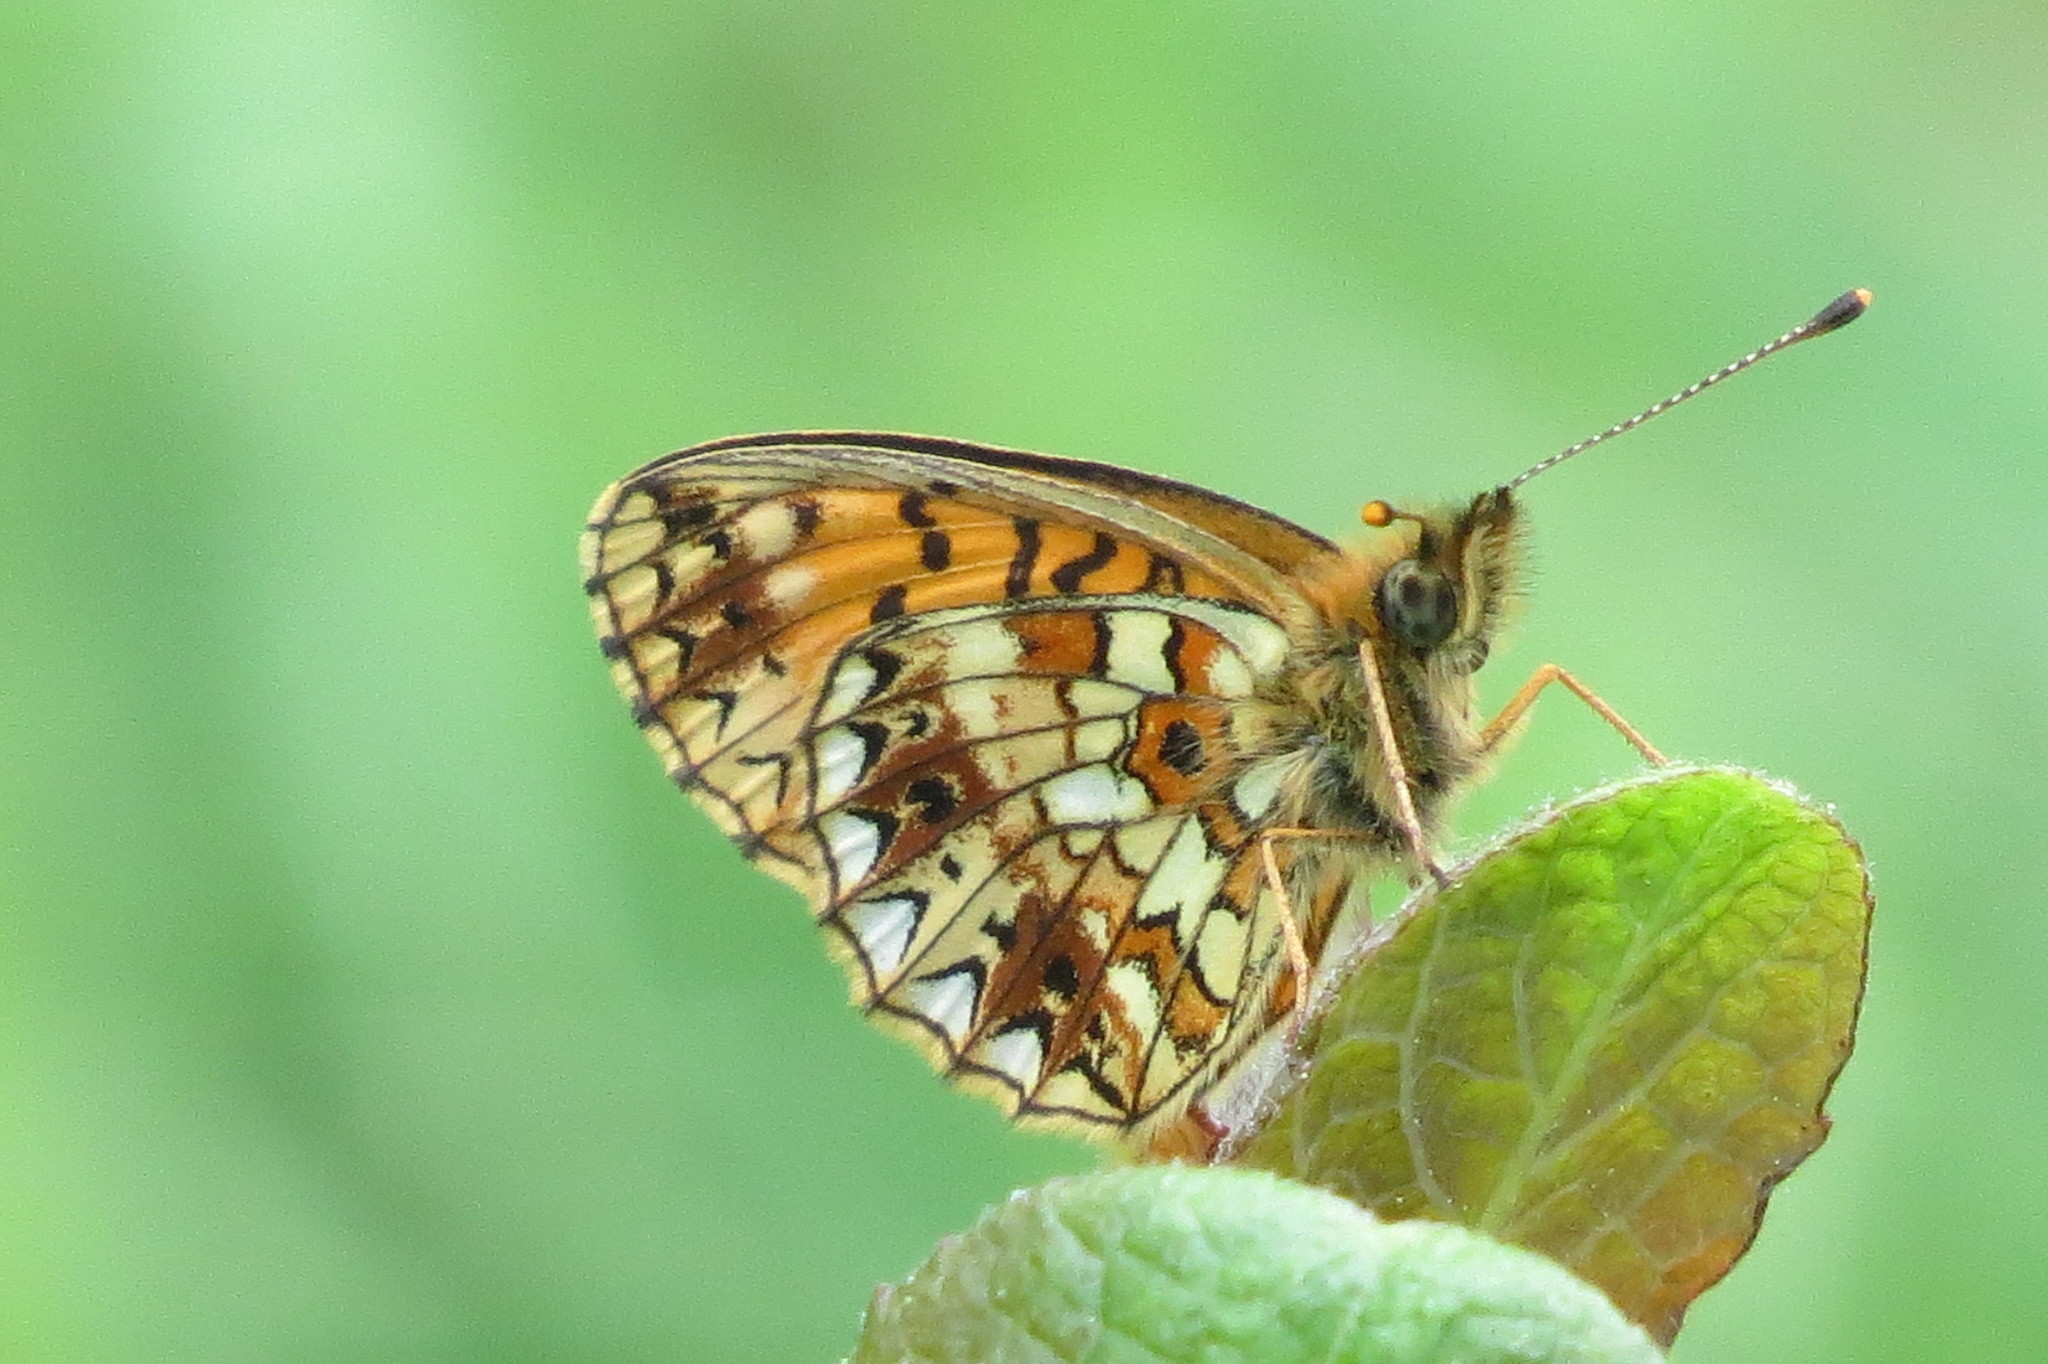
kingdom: Animalia
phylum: Arthropoda
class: Insecta
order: Lepidoptera
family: Nymphalidae
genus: Boloria
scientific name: Boloria selene
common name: Small pearl-bordered fritillary
